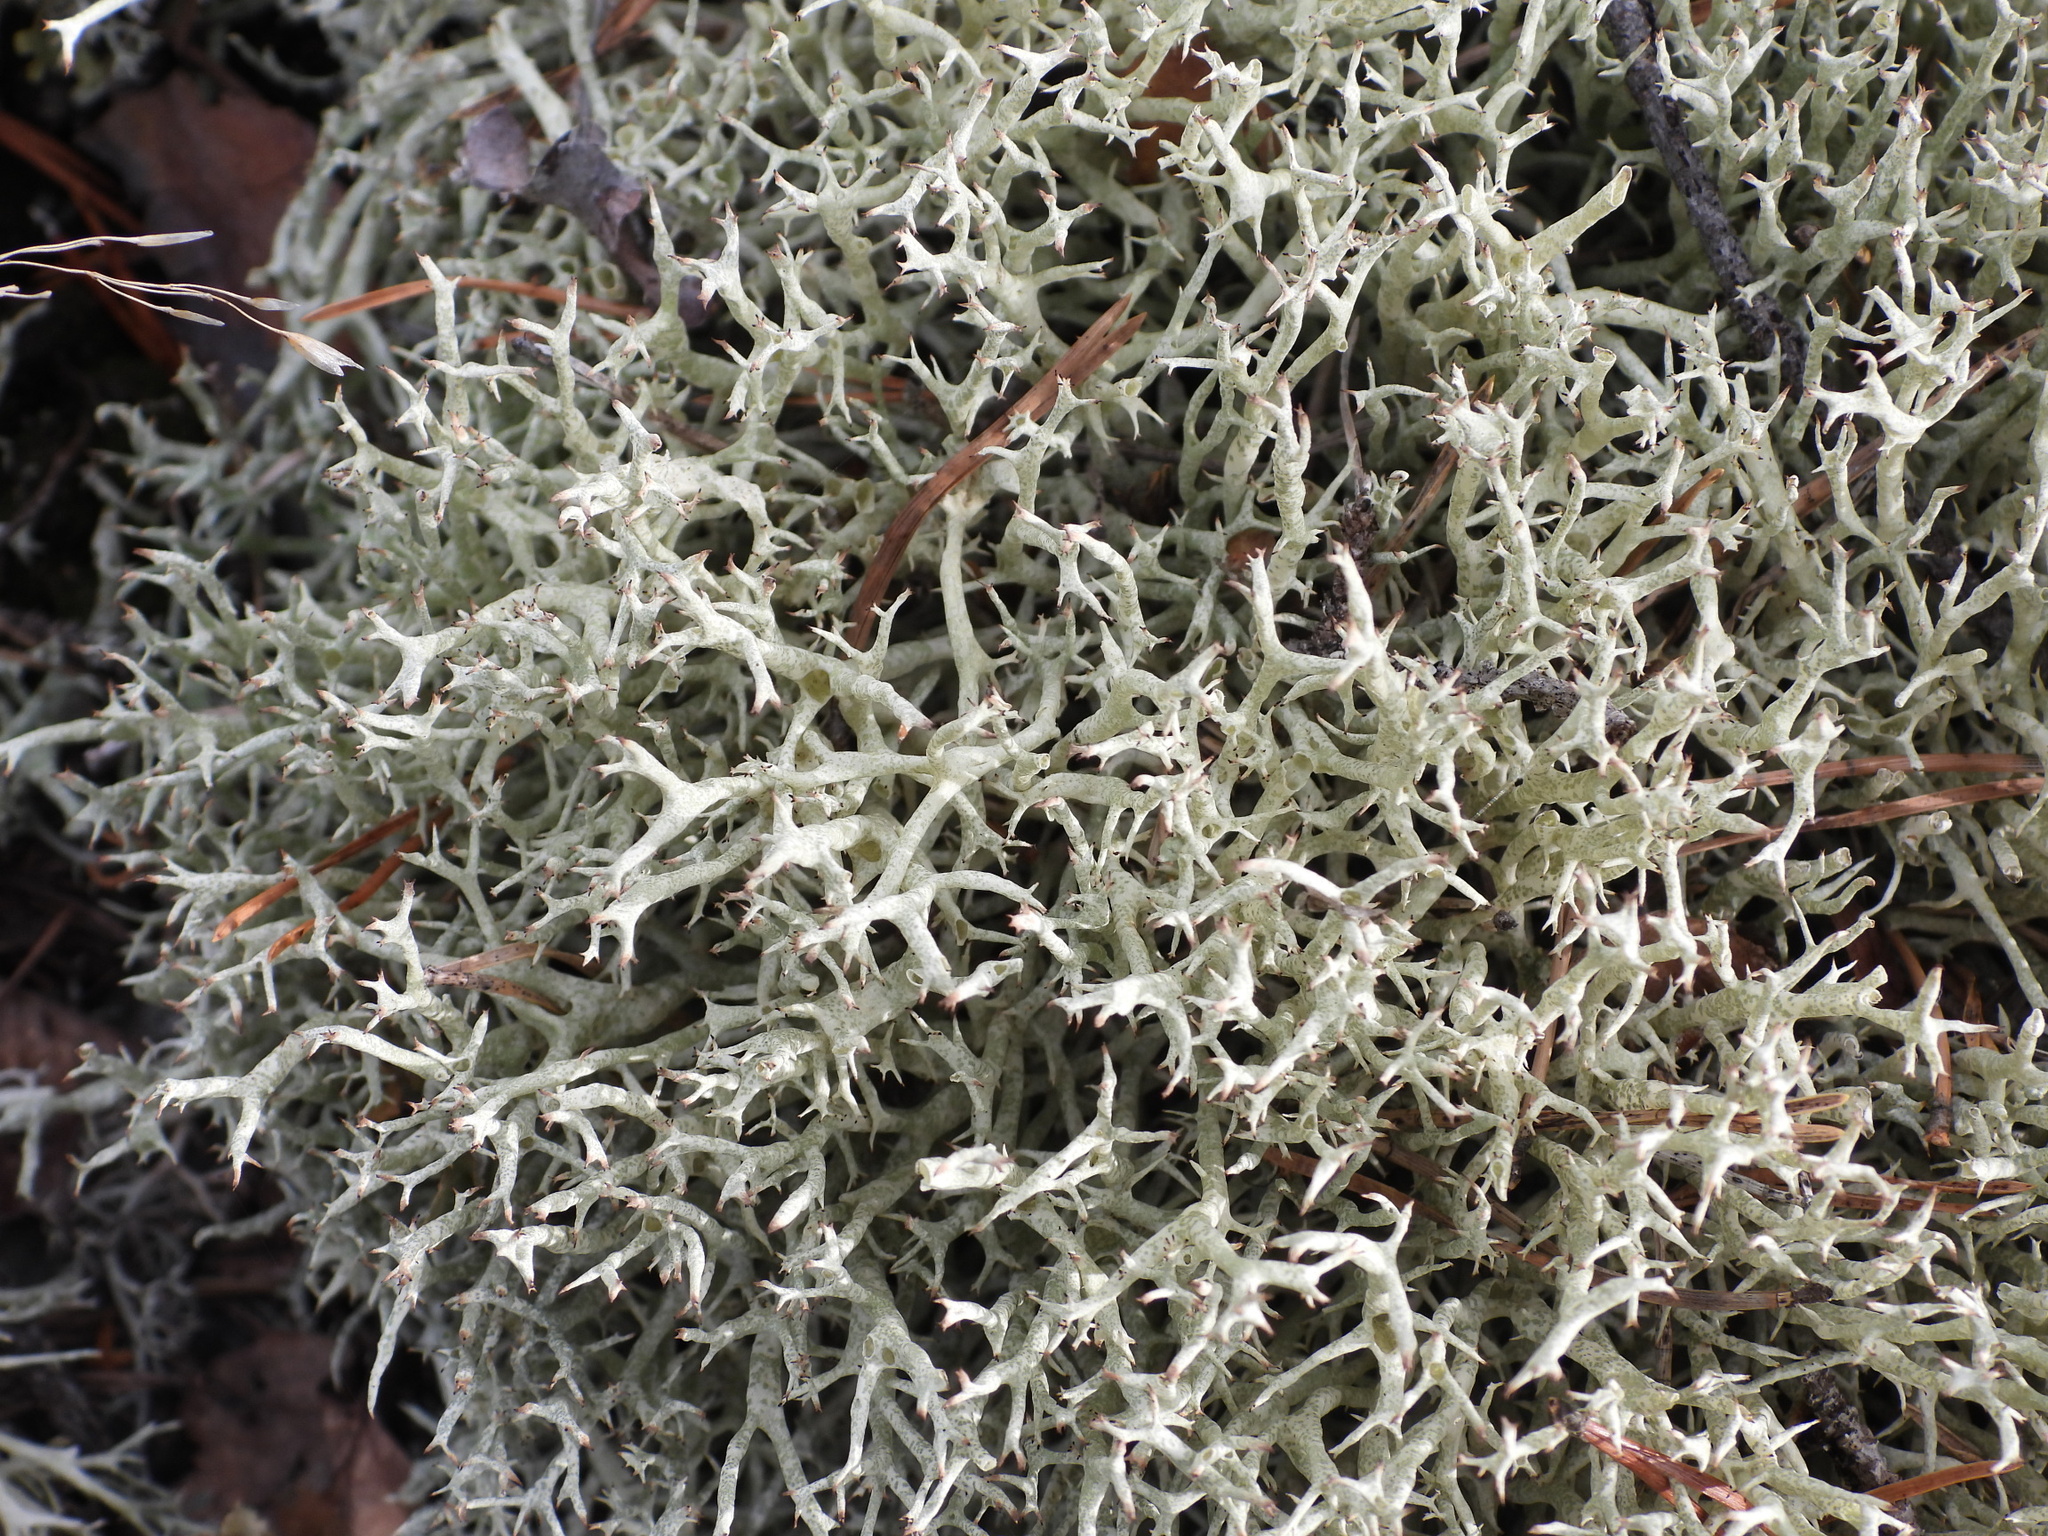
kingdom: Fungi
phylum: Ascomycota
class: Lecanoromycetes
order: Lecanorales
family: Cladoniaceae
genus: Cladonia
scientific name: Cladonia uncialis
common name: Thorn lichen
